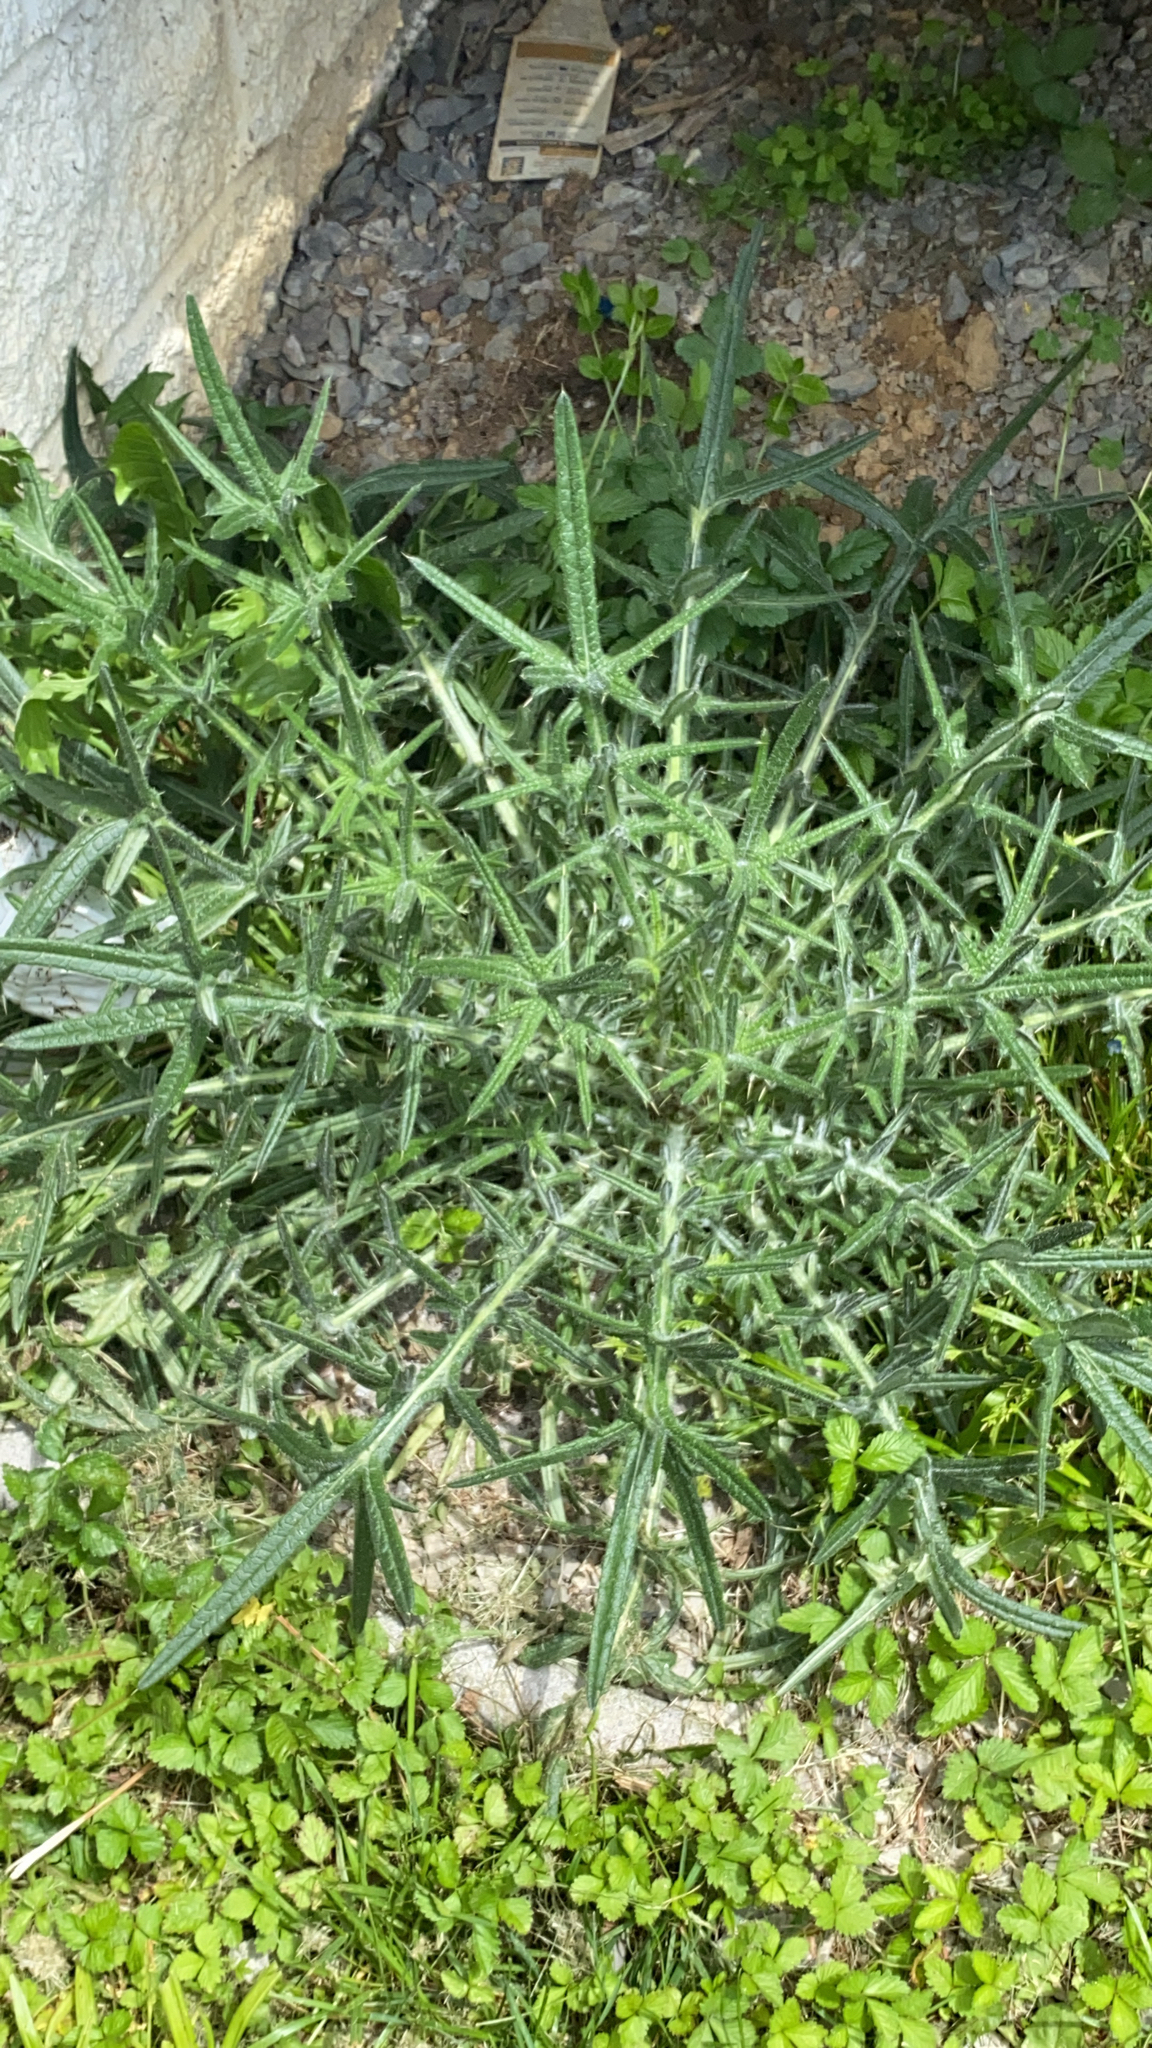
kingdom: Plantae
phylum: Tracheophyta
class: Magnoliopsida
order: Asterales
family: Asteraceae
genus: Cirsium
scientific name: Cirsium vulgare
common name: Bull thistle
